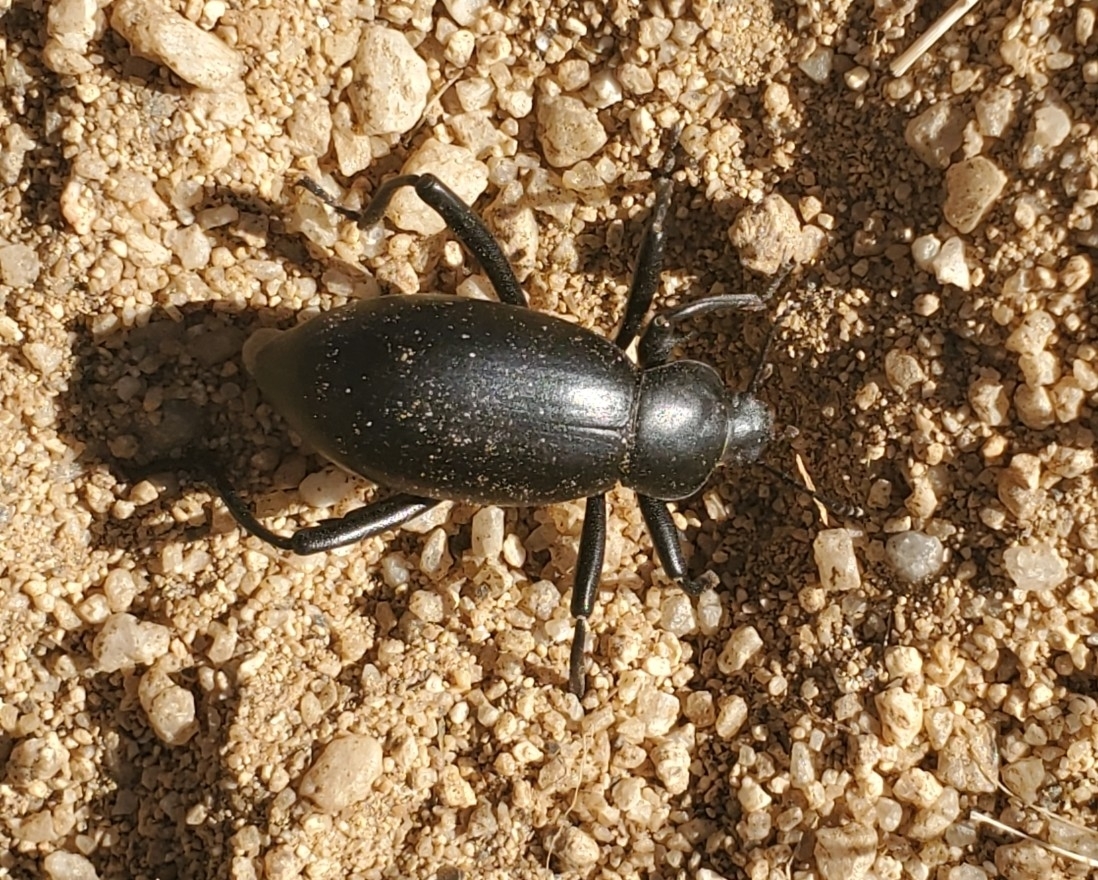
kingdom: Animalia
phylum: Arthropoda
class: Insecta
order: Coleoptera
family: Tenebrionidae
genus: Eleodes
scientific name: Eleodes armata
